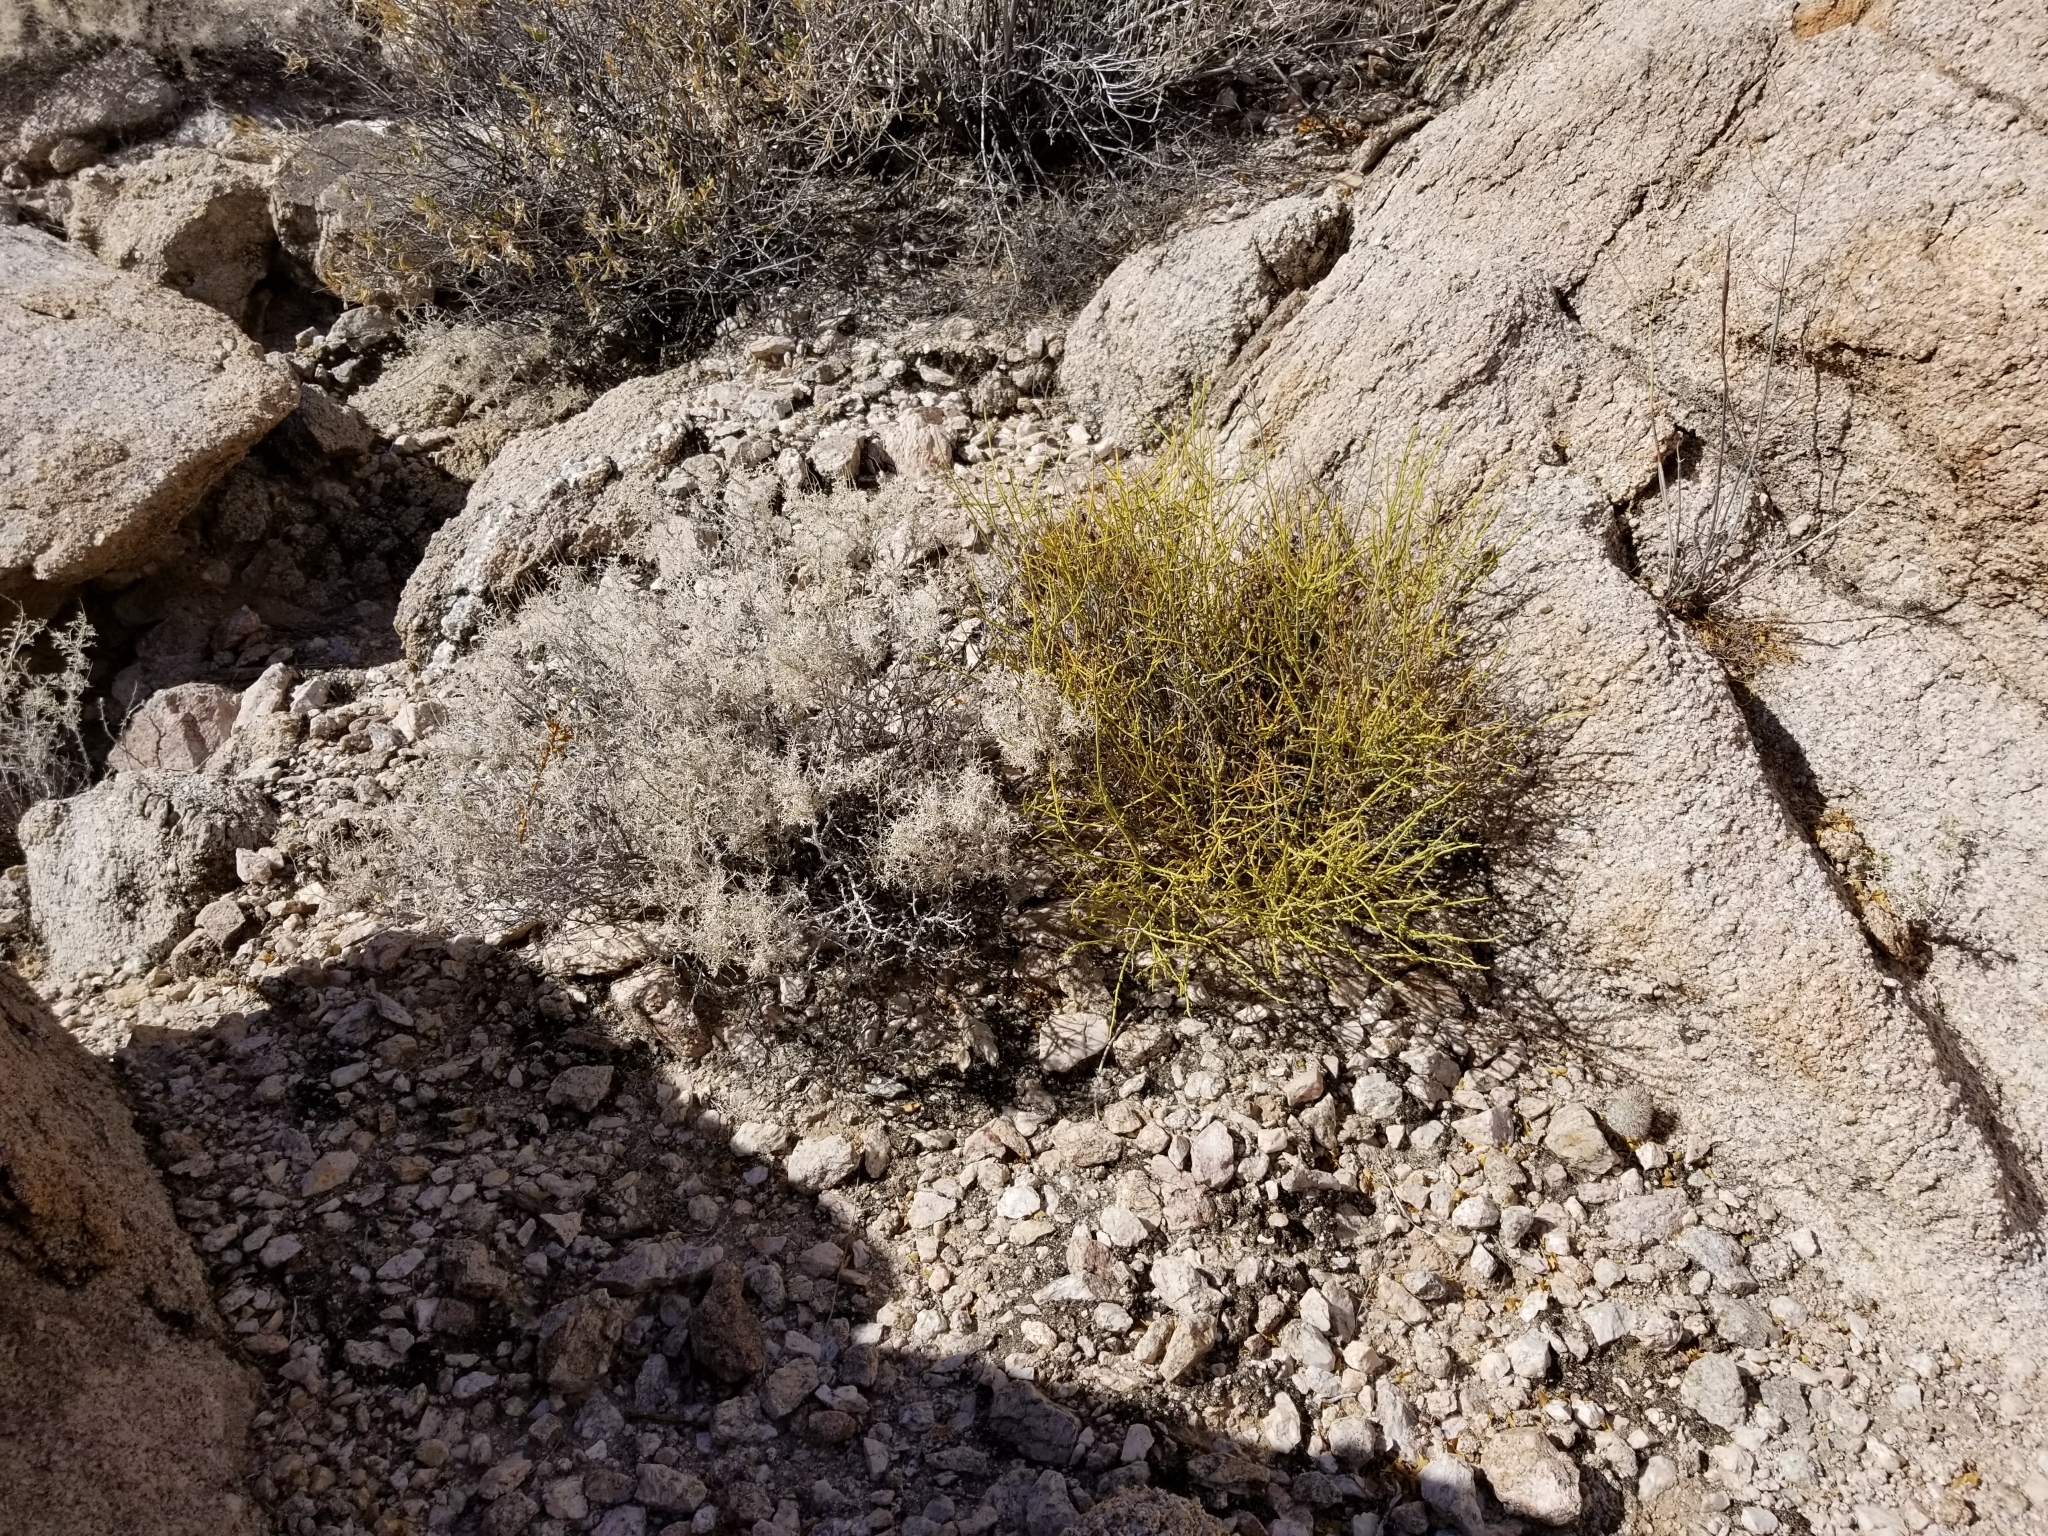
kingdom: Plantae
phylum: Tracheophyta
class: Gnetopsida
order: Ephedrales
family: Ephedraceae
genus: Ephedra
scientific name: Ephedra aspera
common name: Boundary ephedra
